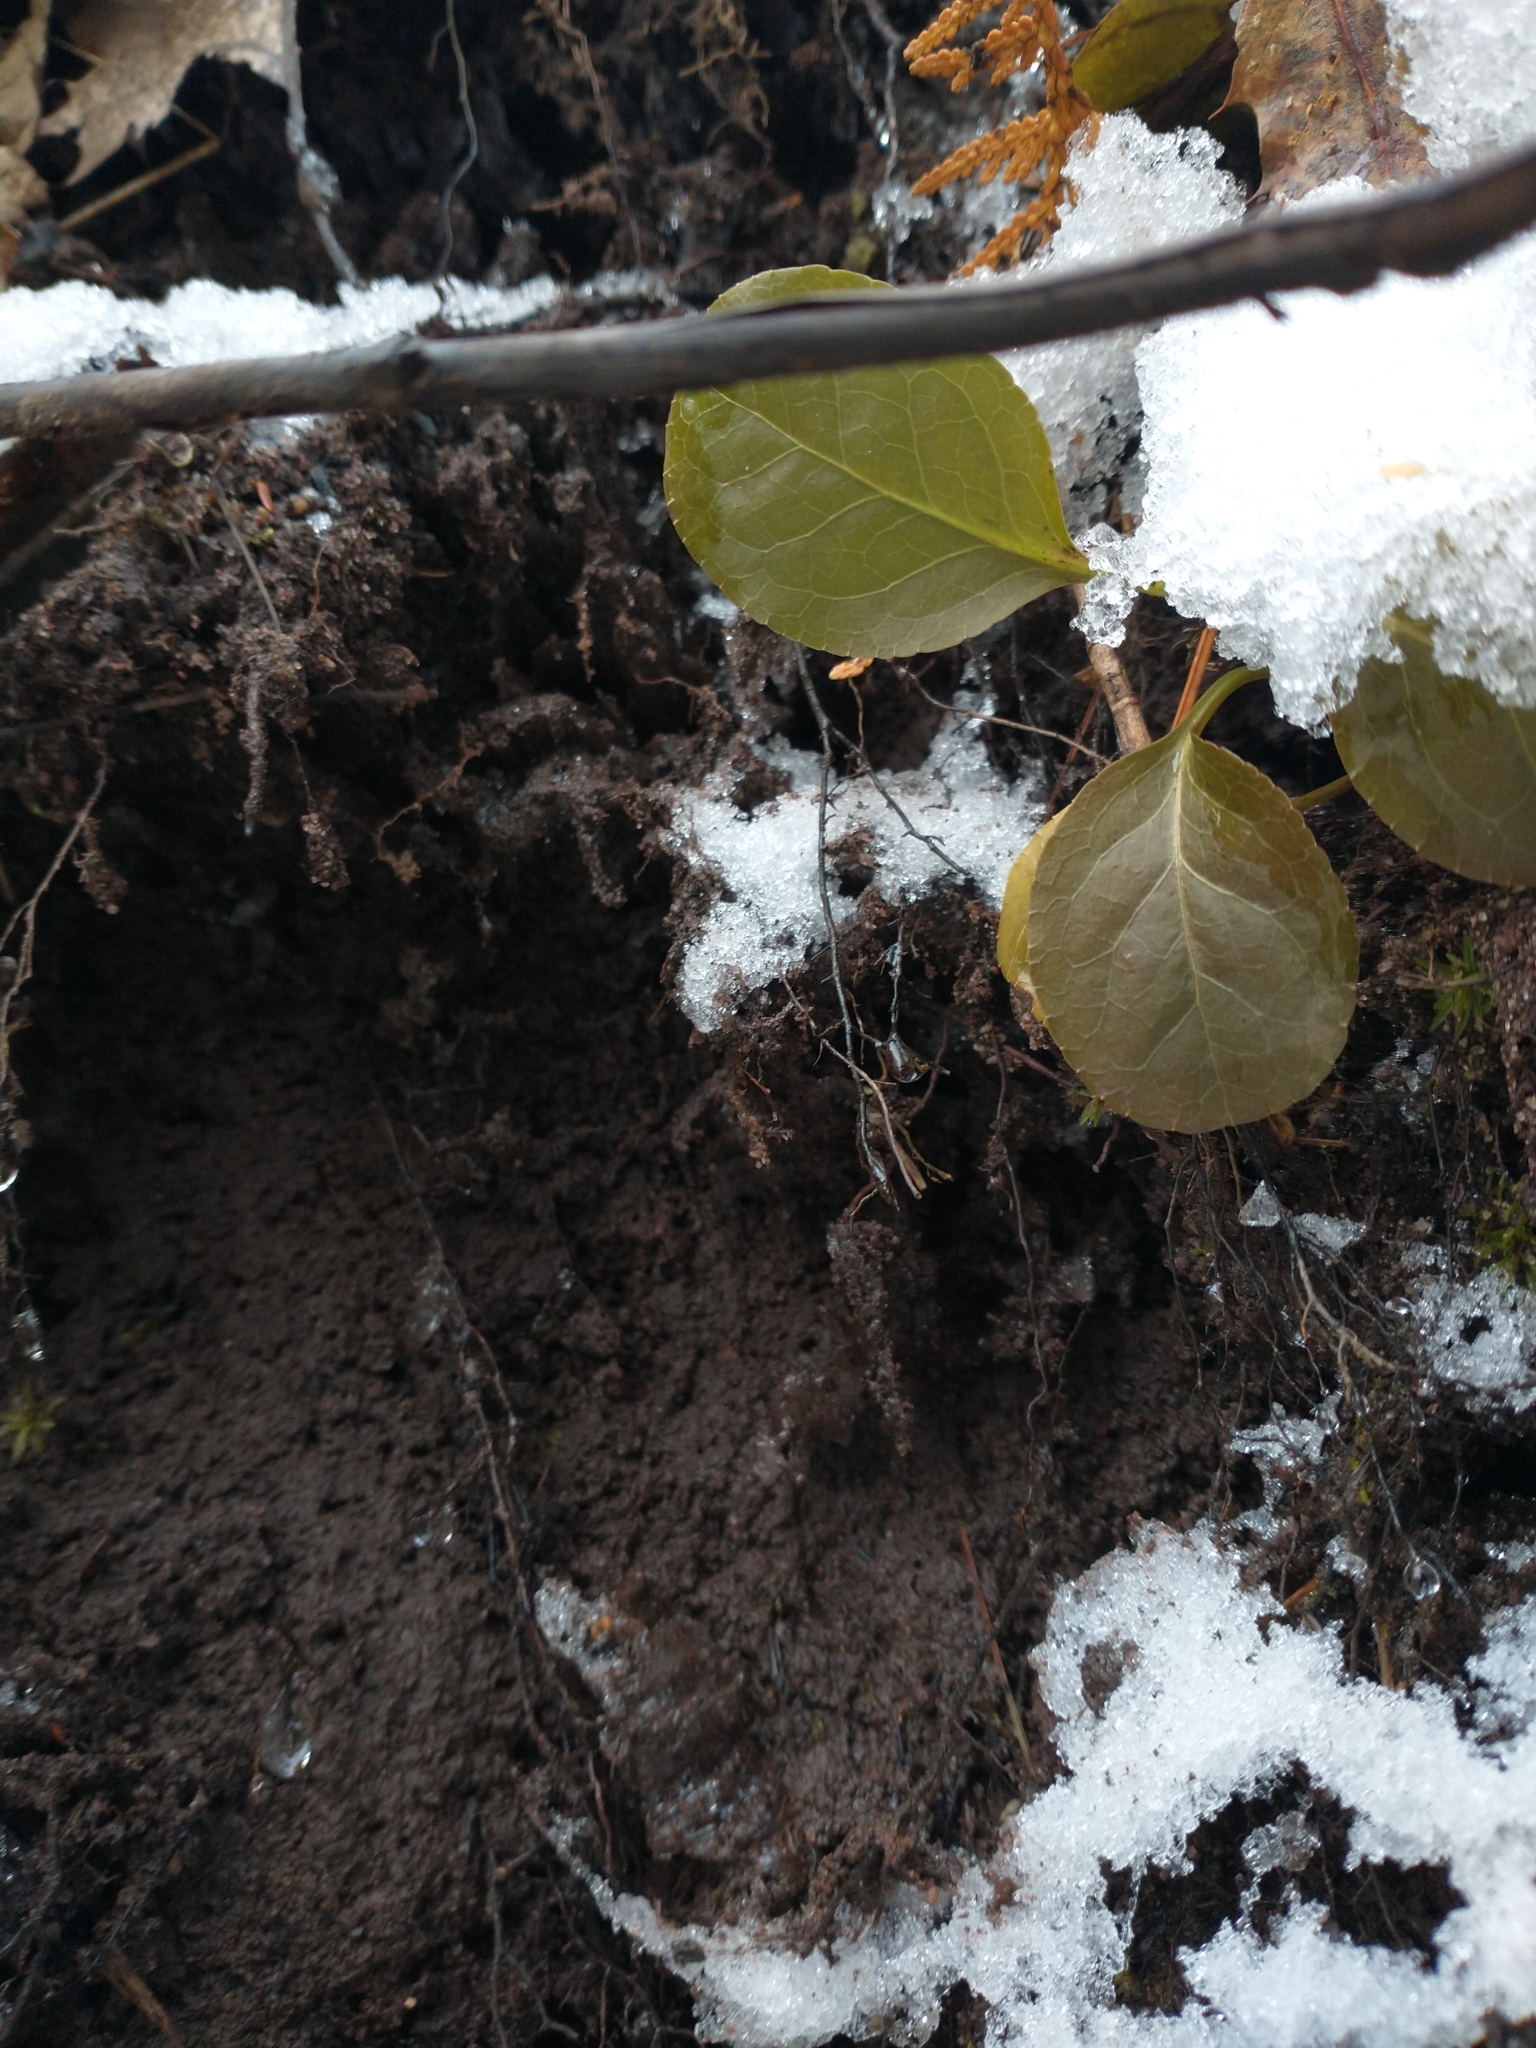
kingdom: Plantae
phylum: Tracheophyta
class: Magnoliopsida
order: Ericales
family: Ericaceae
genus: Pyrola
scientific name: Pyrola elliptica
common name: Shinleaf
